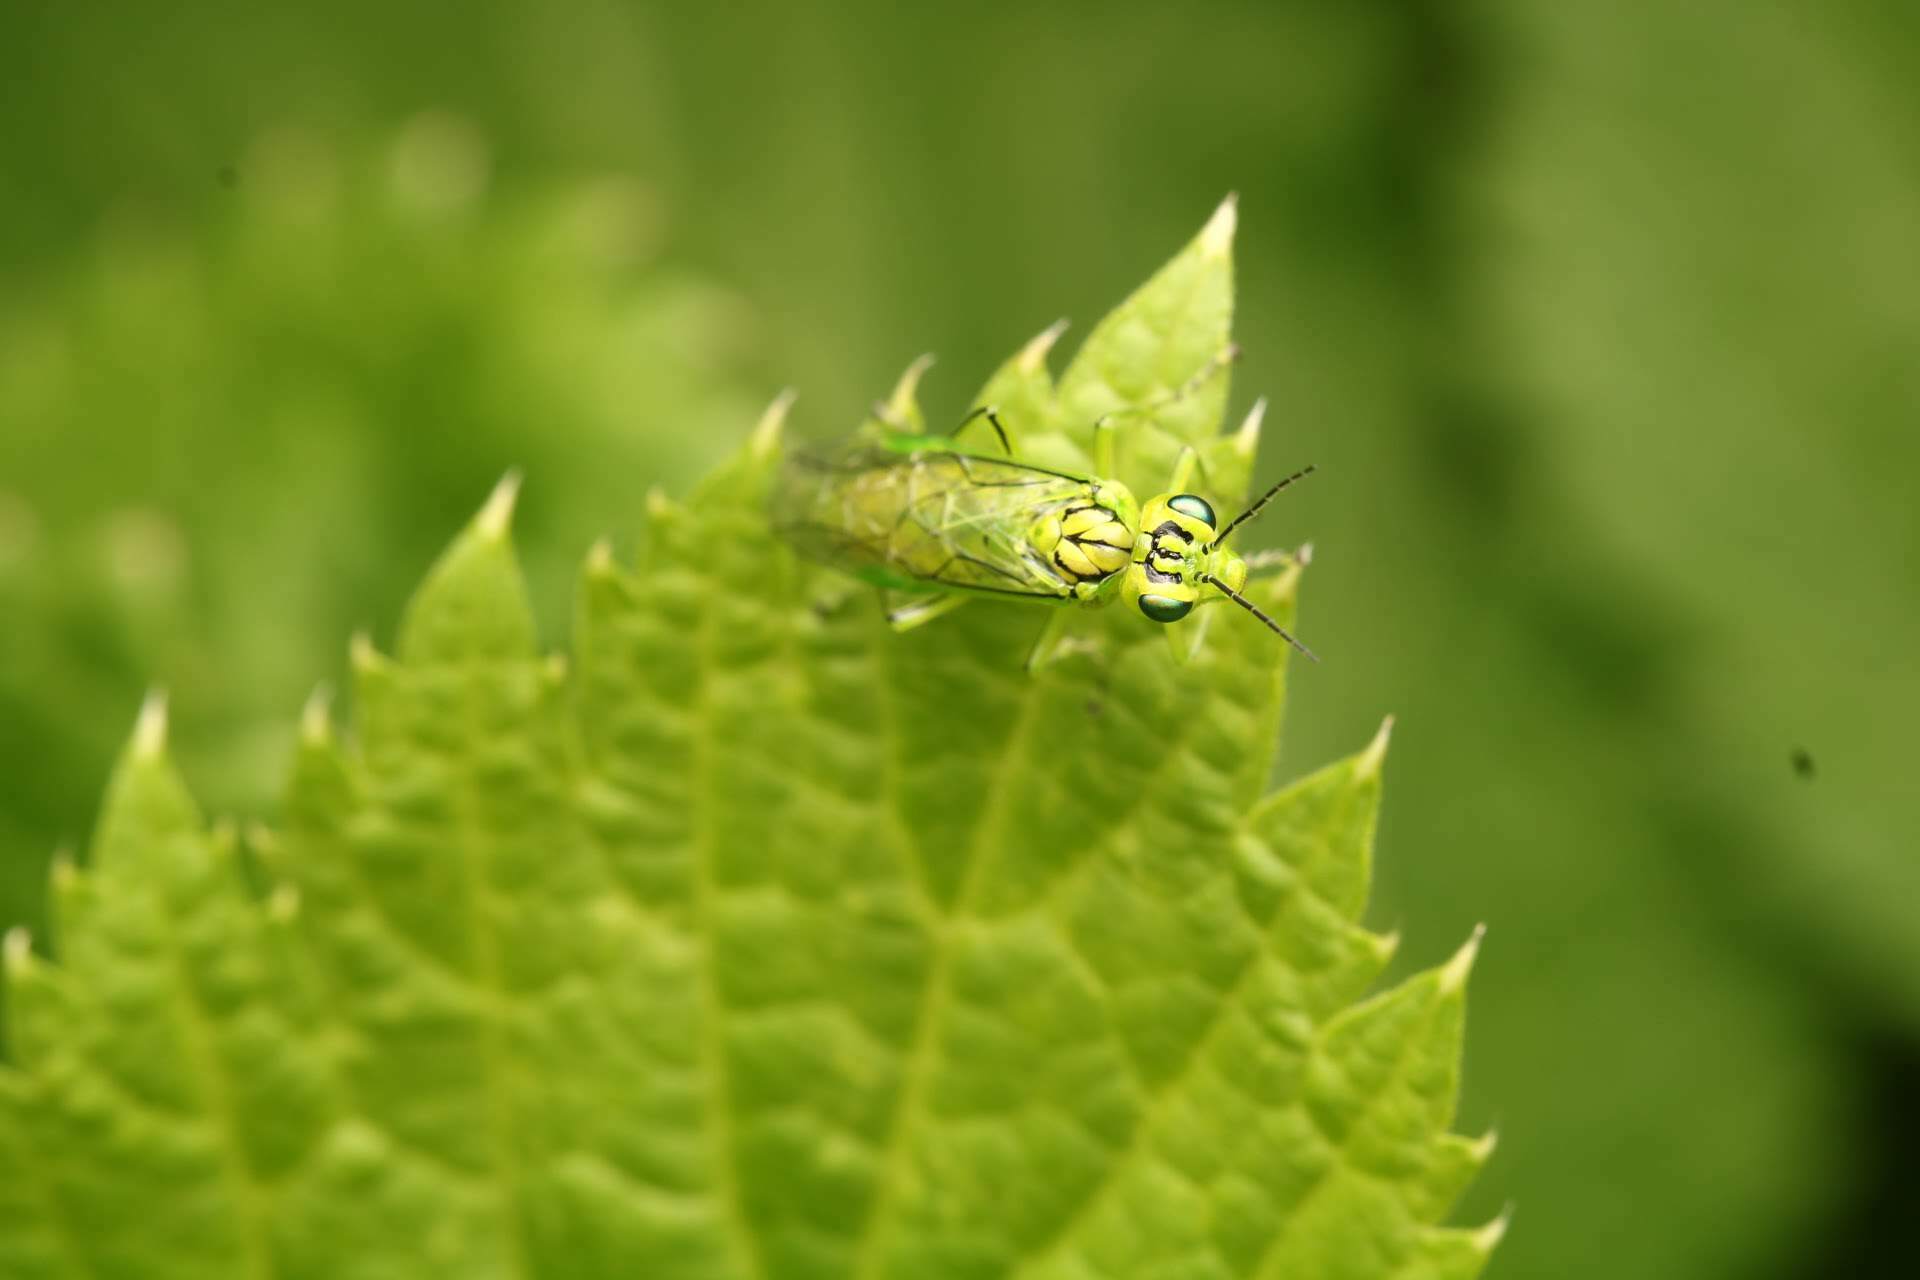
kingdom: Animalia
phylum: Arthropoda
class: Insecta
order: Hymenoptera
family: Tenthredinidae
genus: Rhogogaster
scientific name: Rhogogaster punctulata
